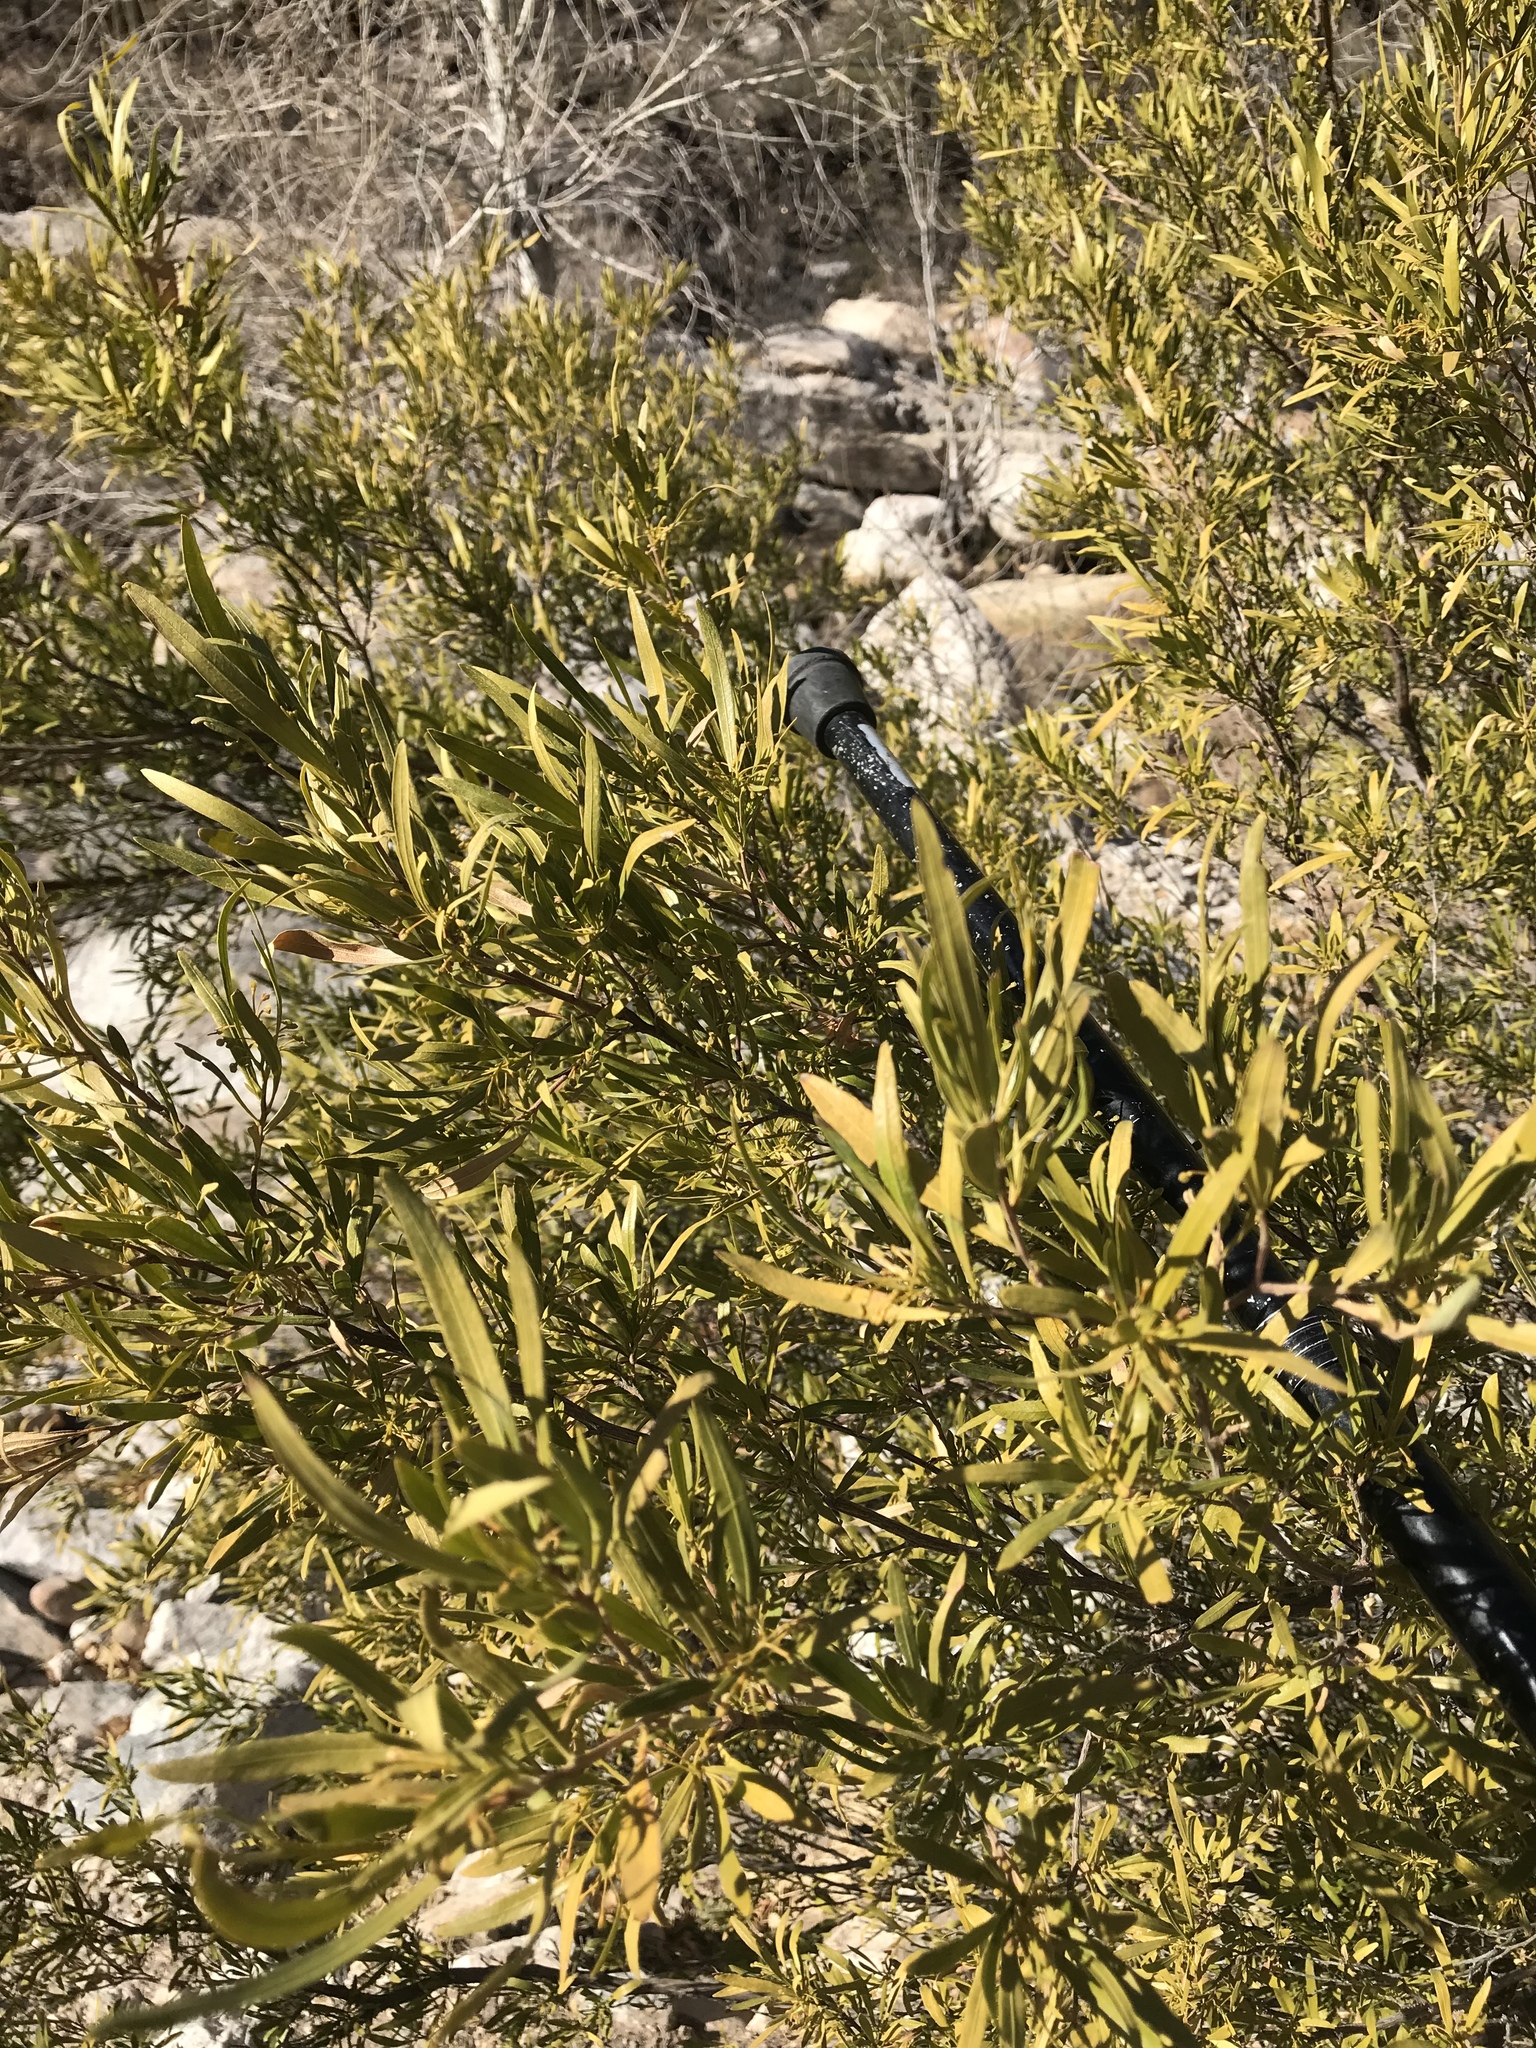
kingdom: Plantae
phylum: Tracheophyta
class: Magnoliopsida
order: Sapindales
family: Sapindaceae
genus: Dodonaea
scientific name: Dodonaea viscosa
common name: Hopbush
